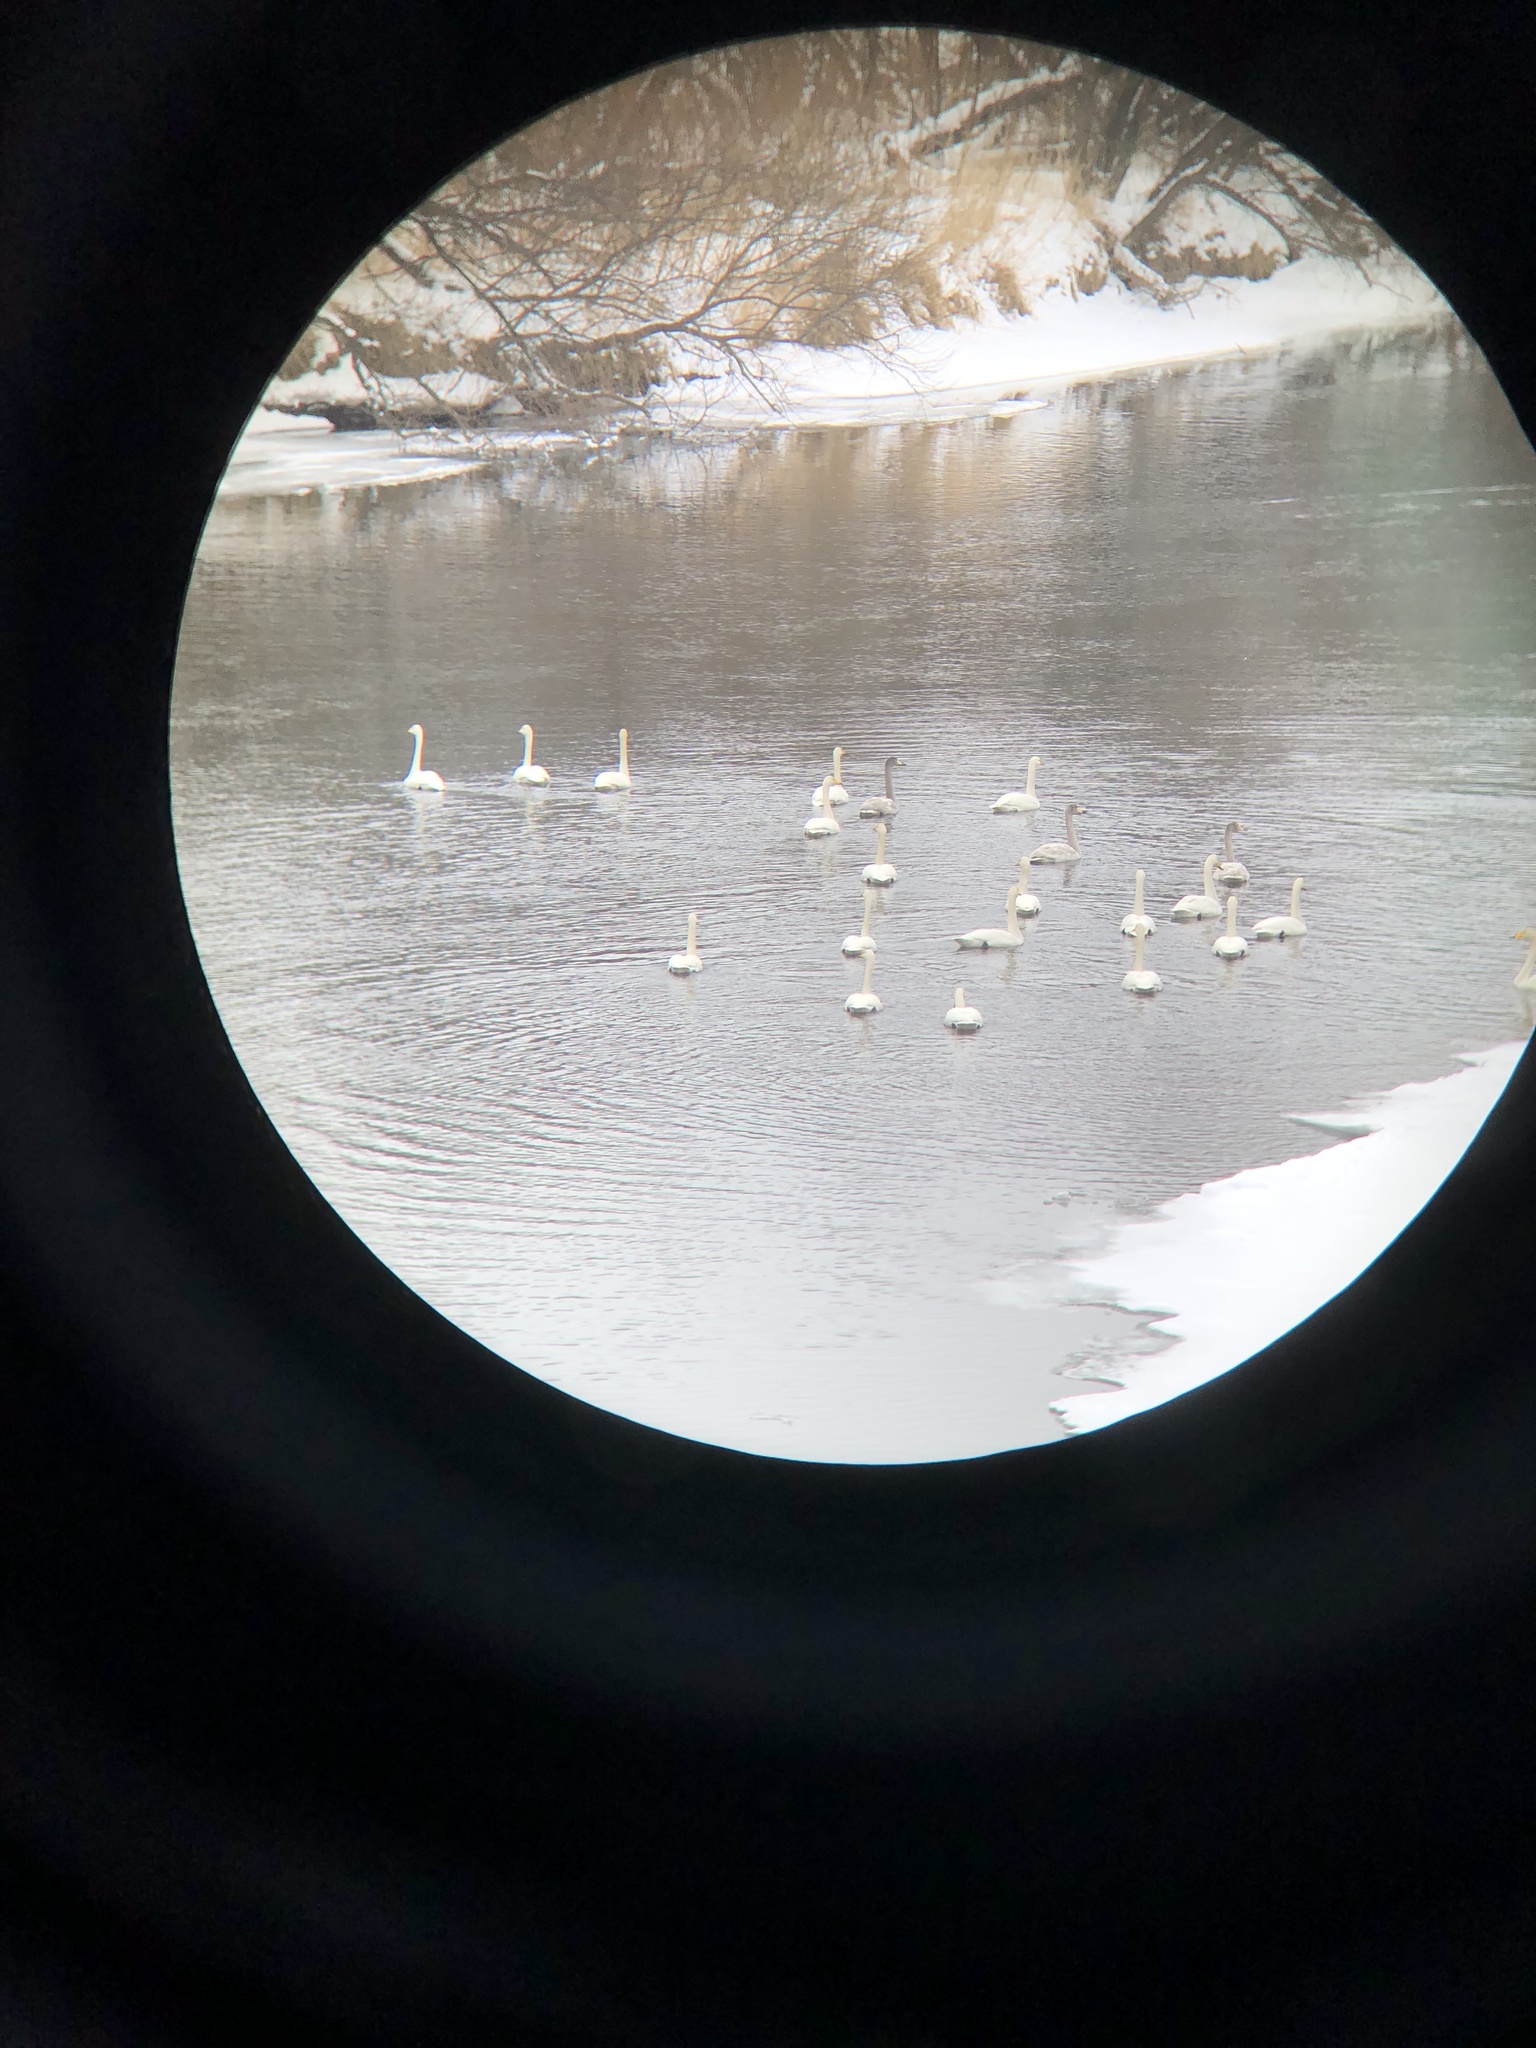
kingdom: Animalia
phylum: Chordata
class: Aves
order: Anseriformes
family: Anatidae
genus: Cygnus
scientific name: Cygnus cygnus
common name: Whooper swan
